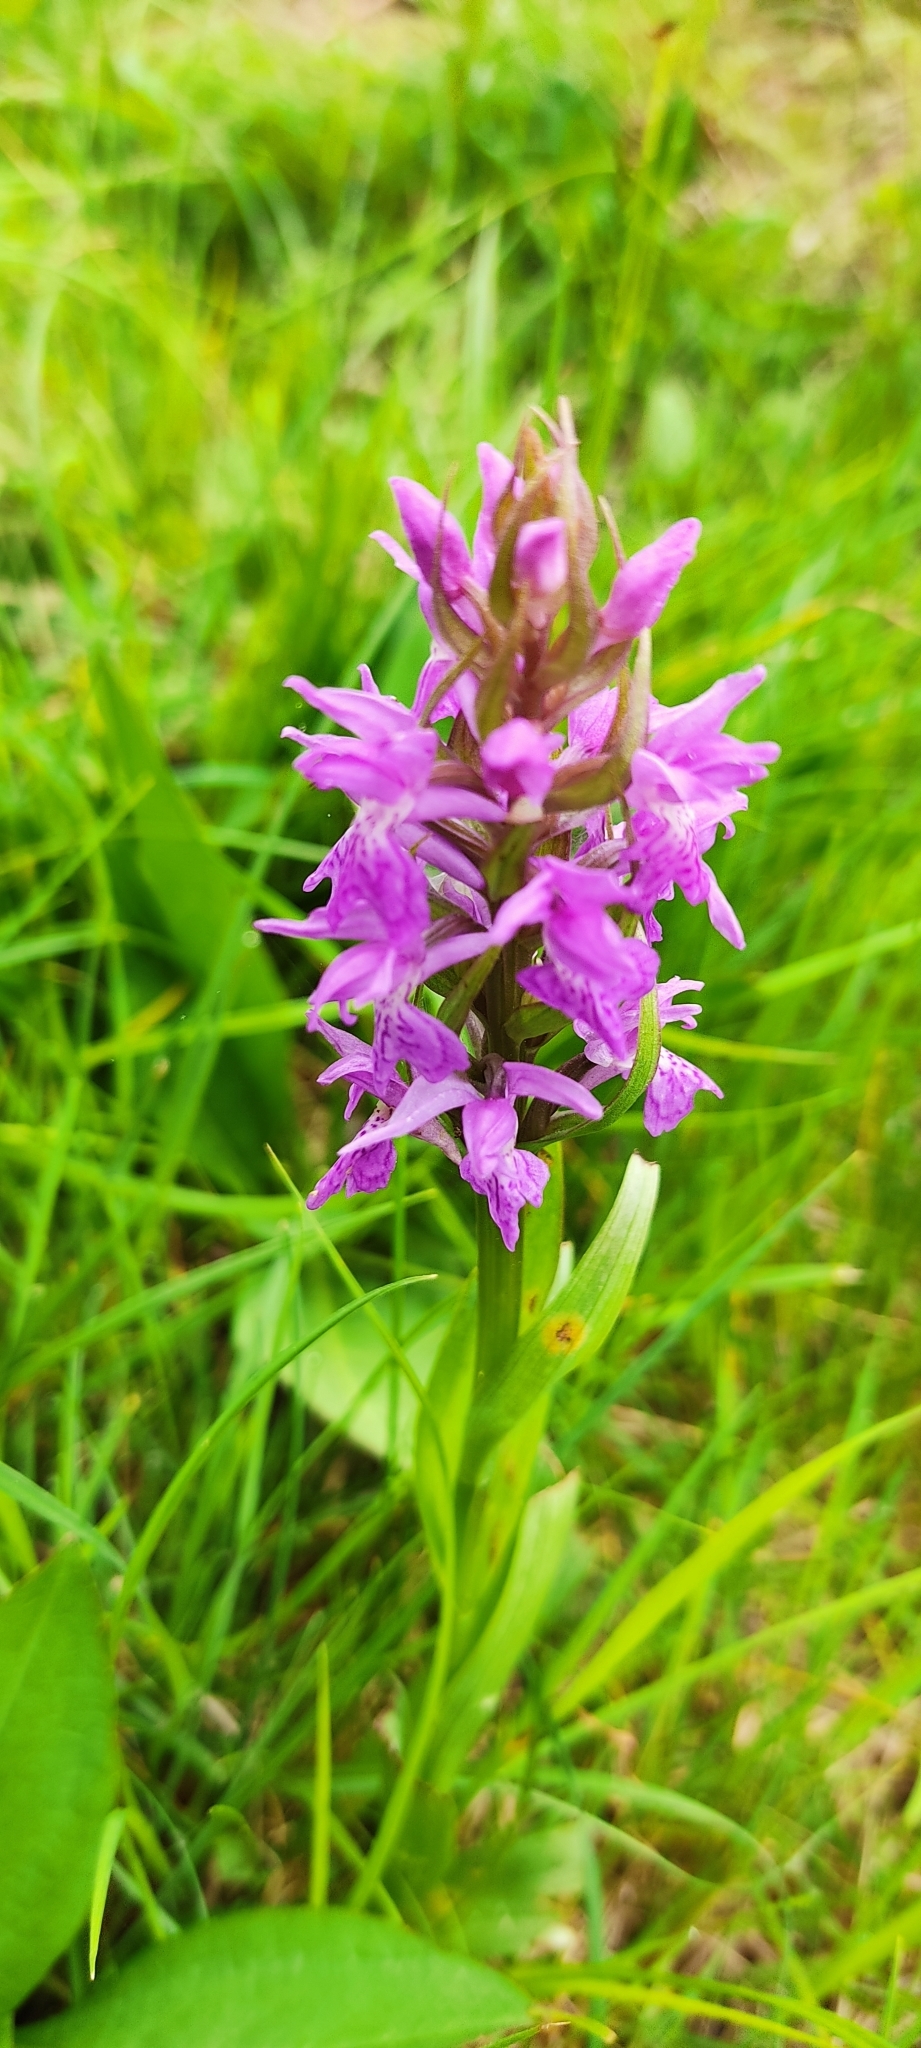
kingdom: Plantae
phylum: Tracheophyta
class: Liliopsida
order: Asparagales
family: Orchidaceae
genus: Dactylorhiza
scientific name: Dactylorhiza elata
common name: Stately dactylorhiza
